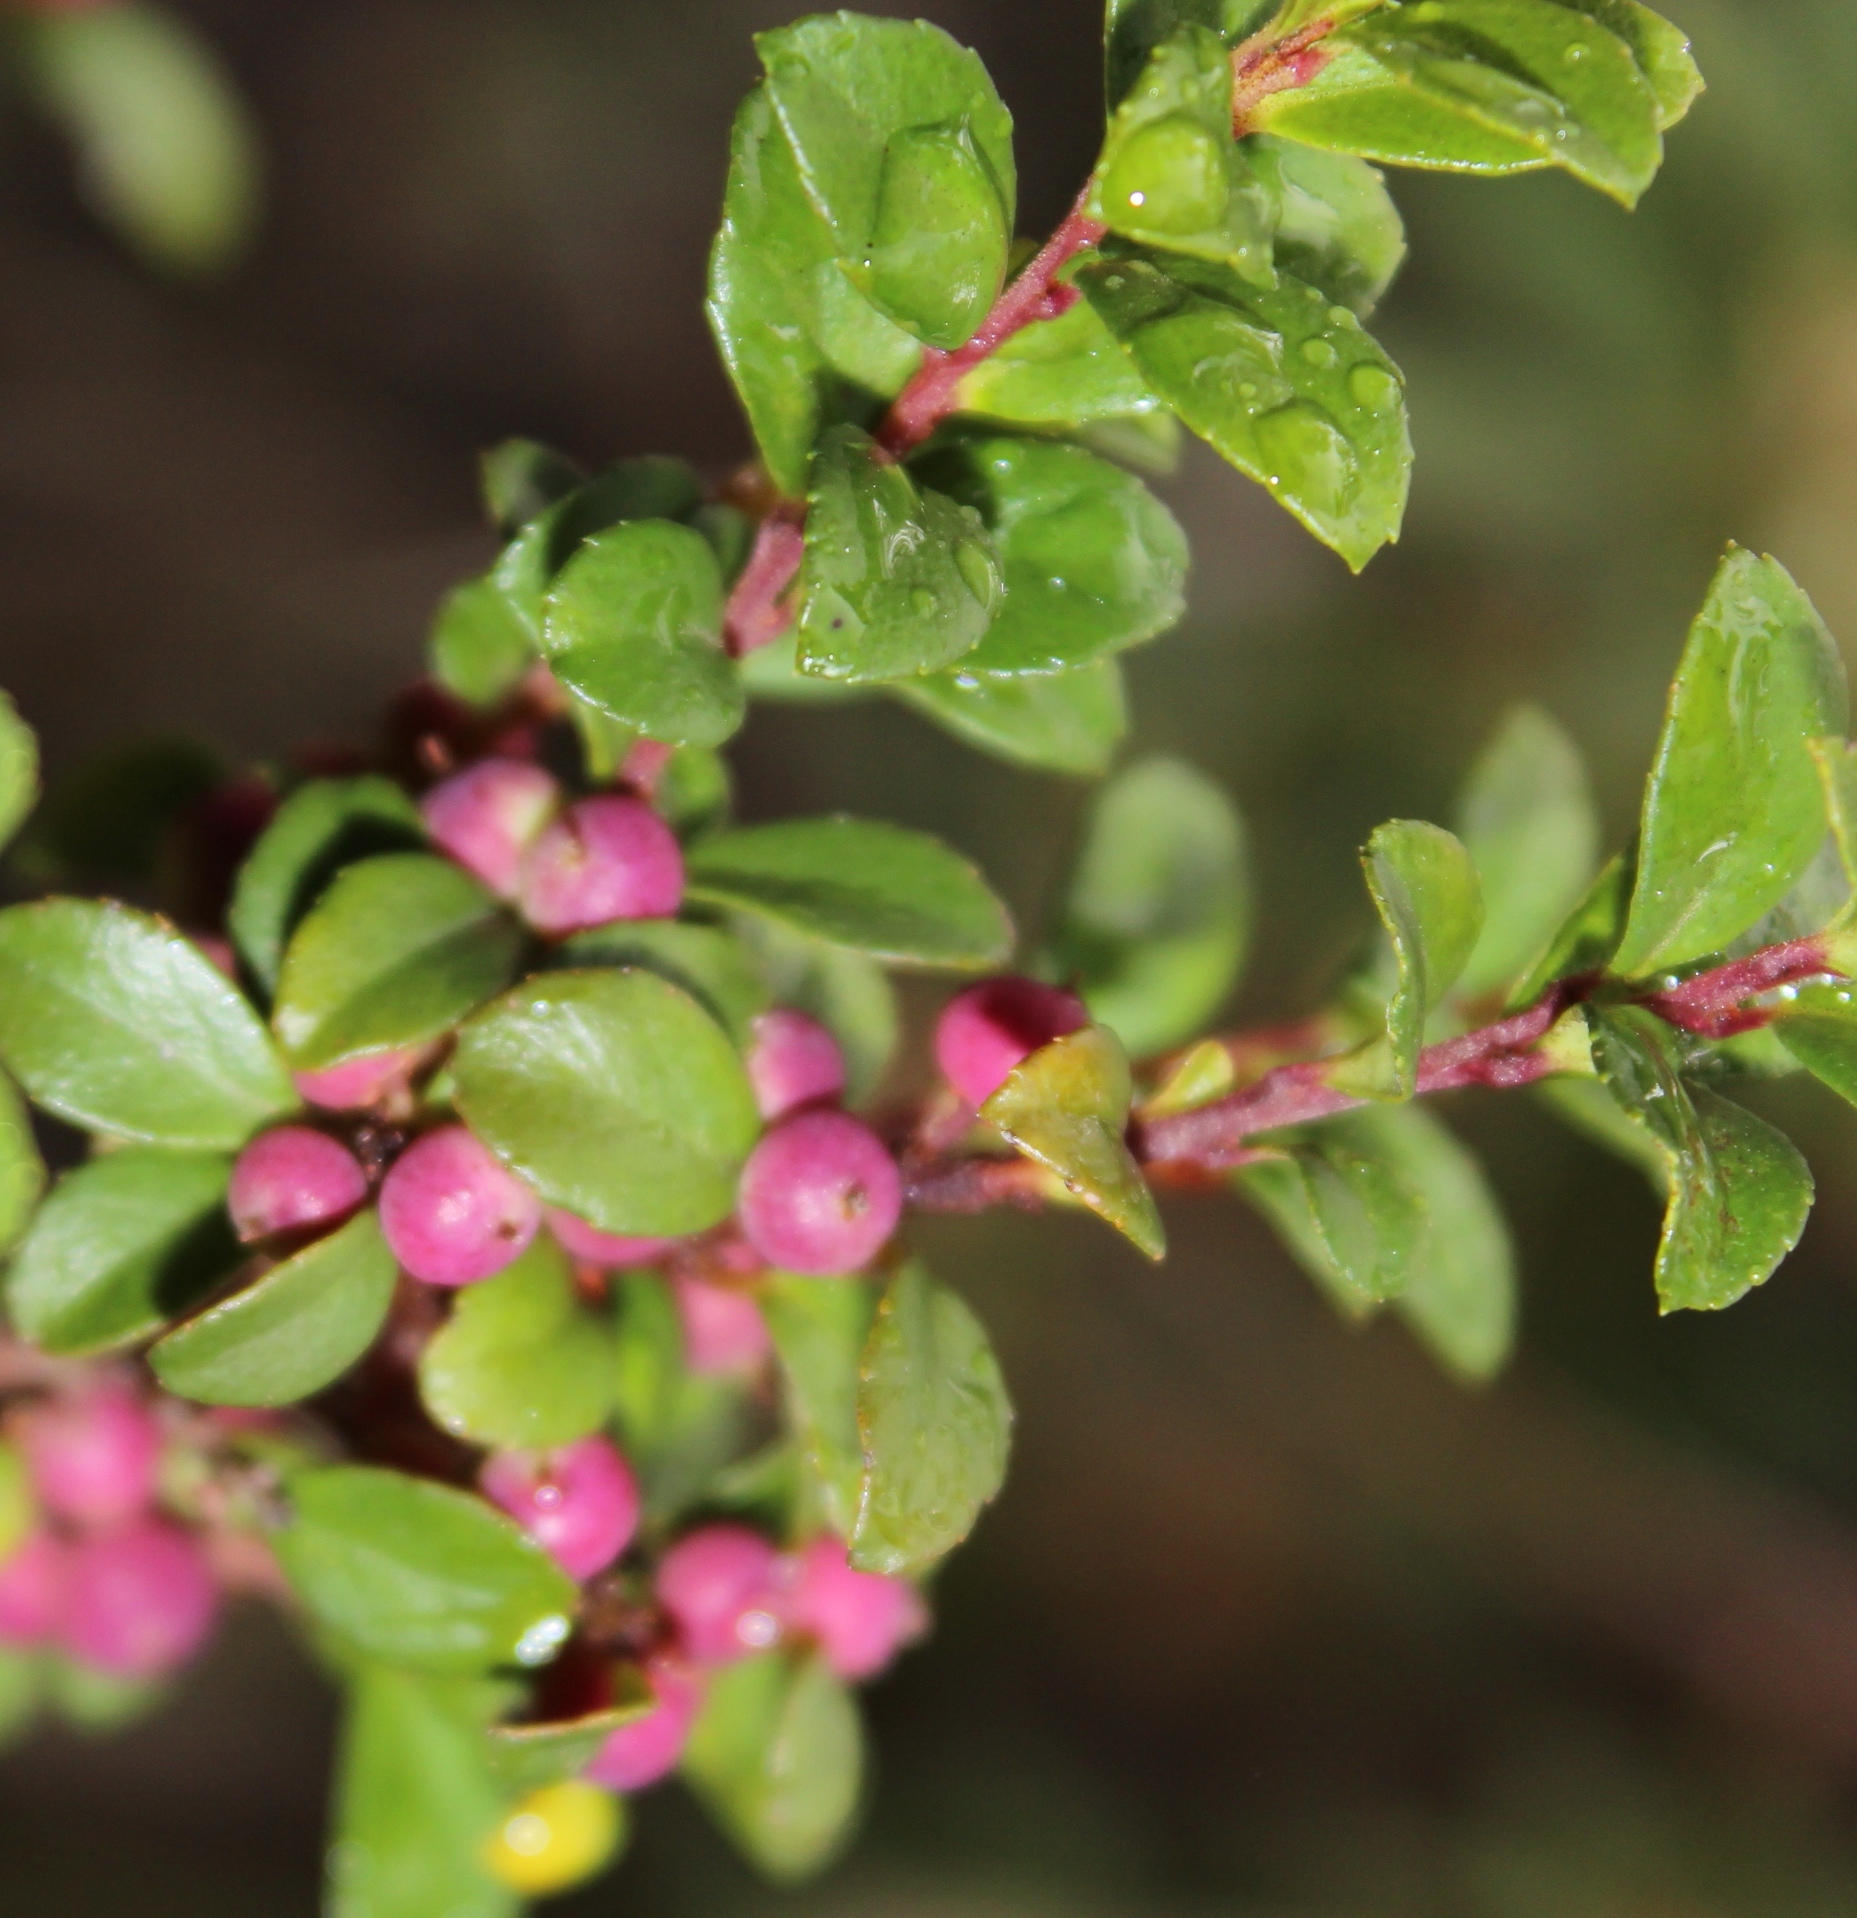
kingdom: Plantae
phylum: Tracheophyta
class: Magnoliopsida
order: Ericales
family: Primulaceae
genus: Myrsine
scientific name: Myrsine africana
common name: African-boxwood
